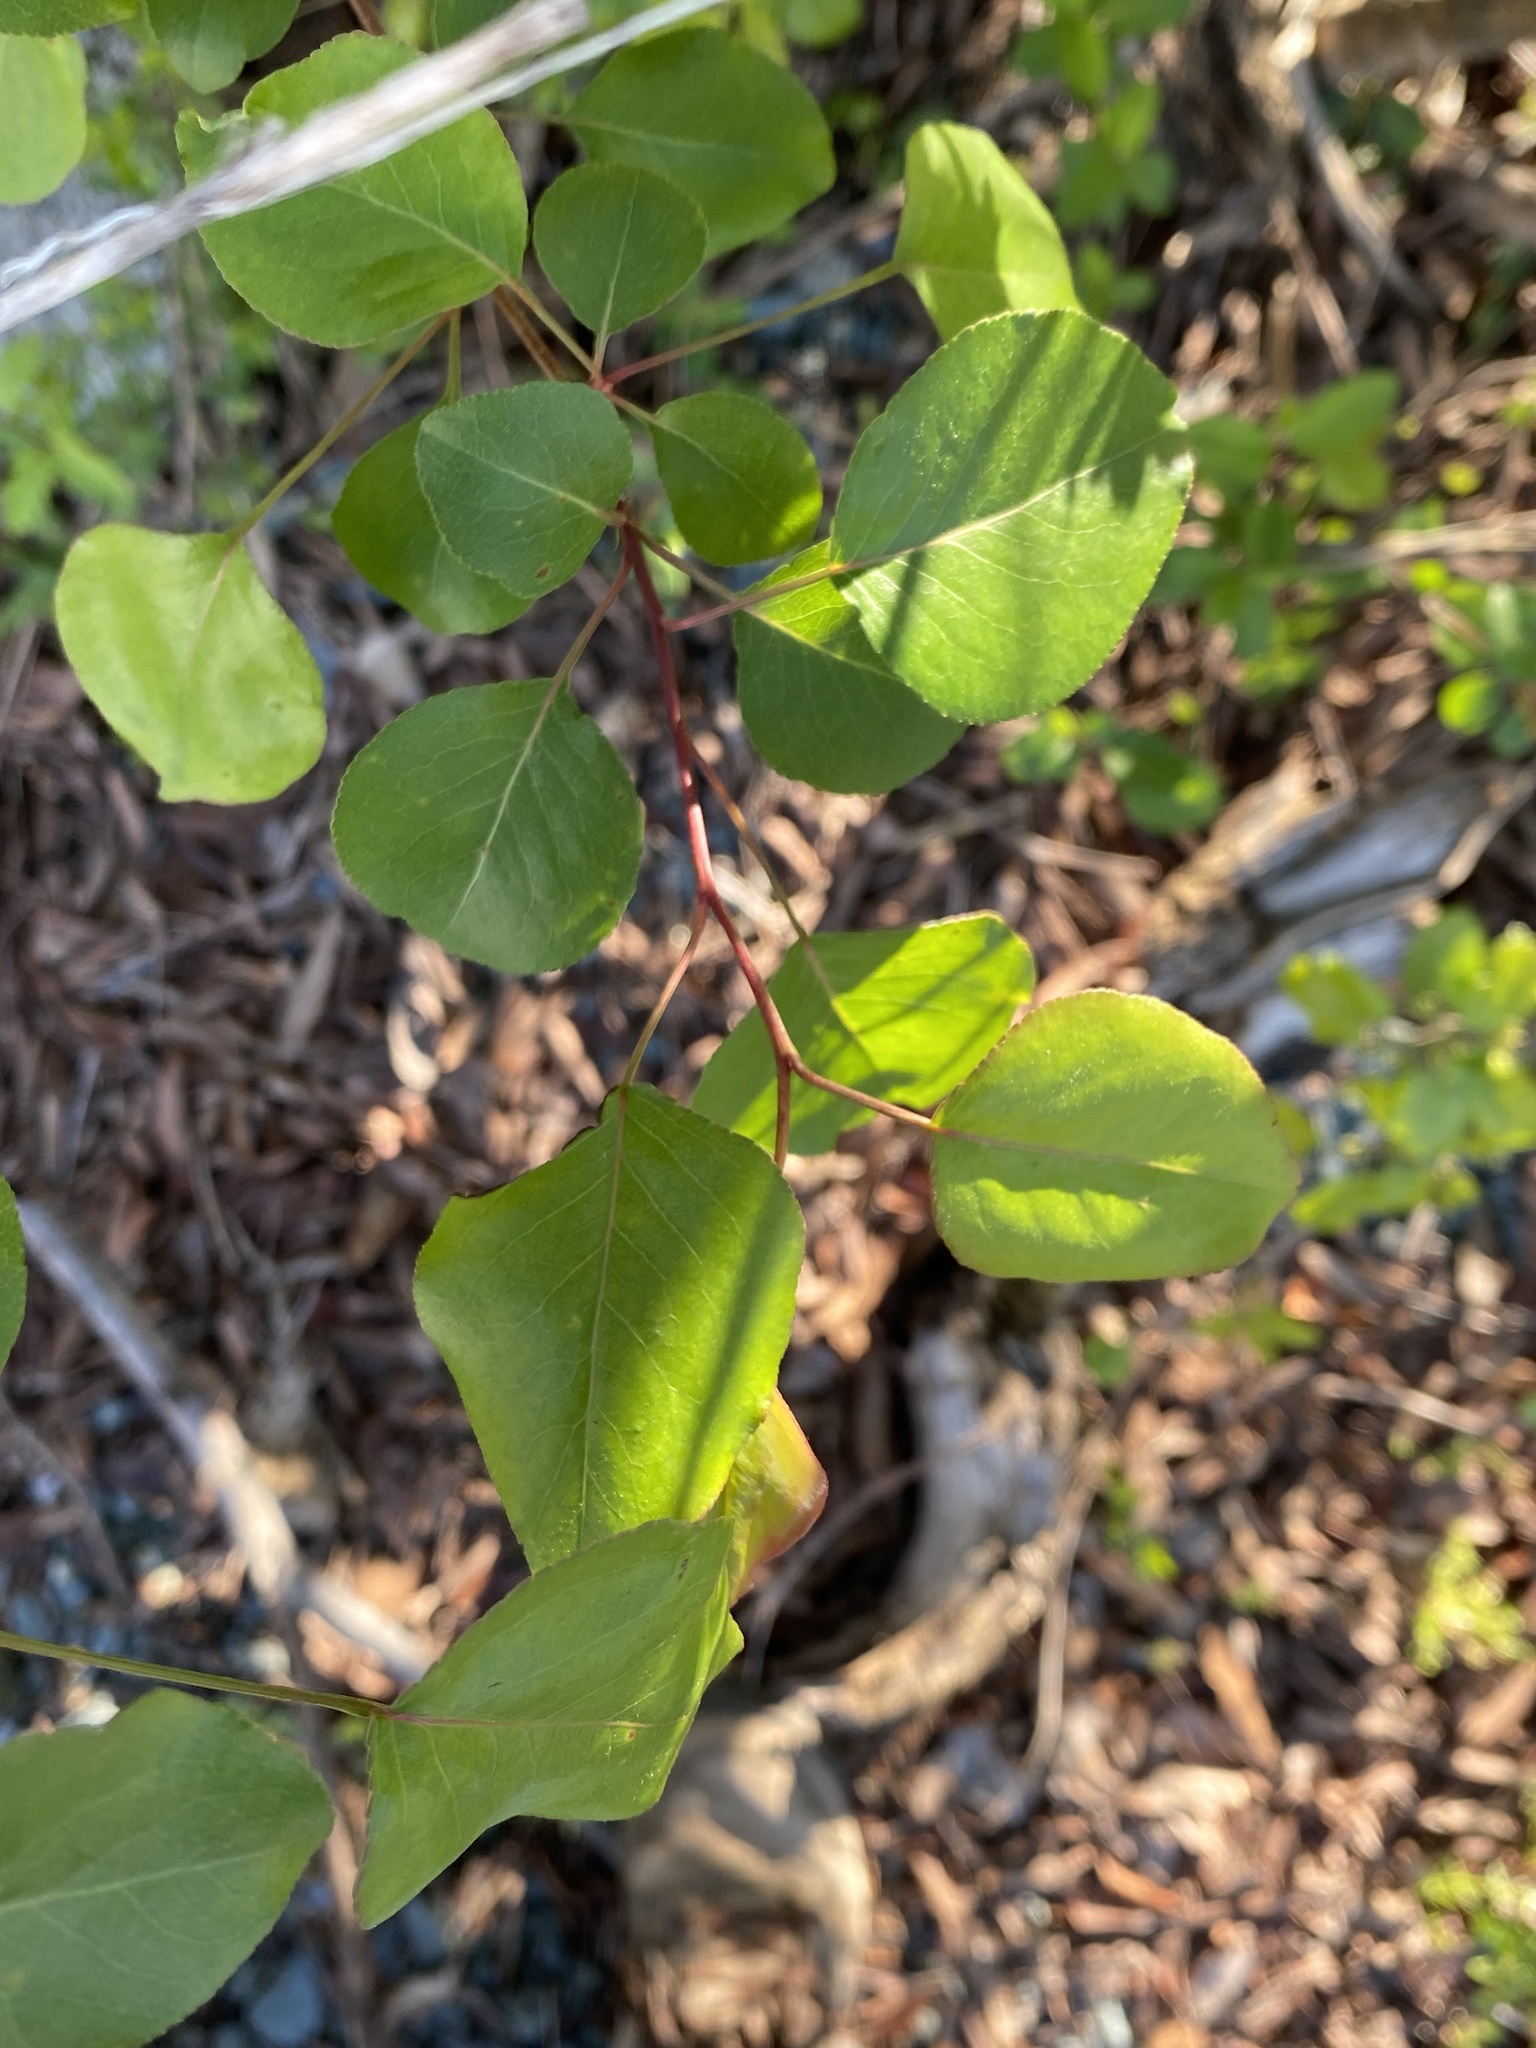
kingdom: Plantae
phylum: Tracheophyta
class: Magnoliopsida
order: Rosales
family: Rosaceae
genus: Pyrus
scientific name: Pyrus calleryana
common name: Callery pear
